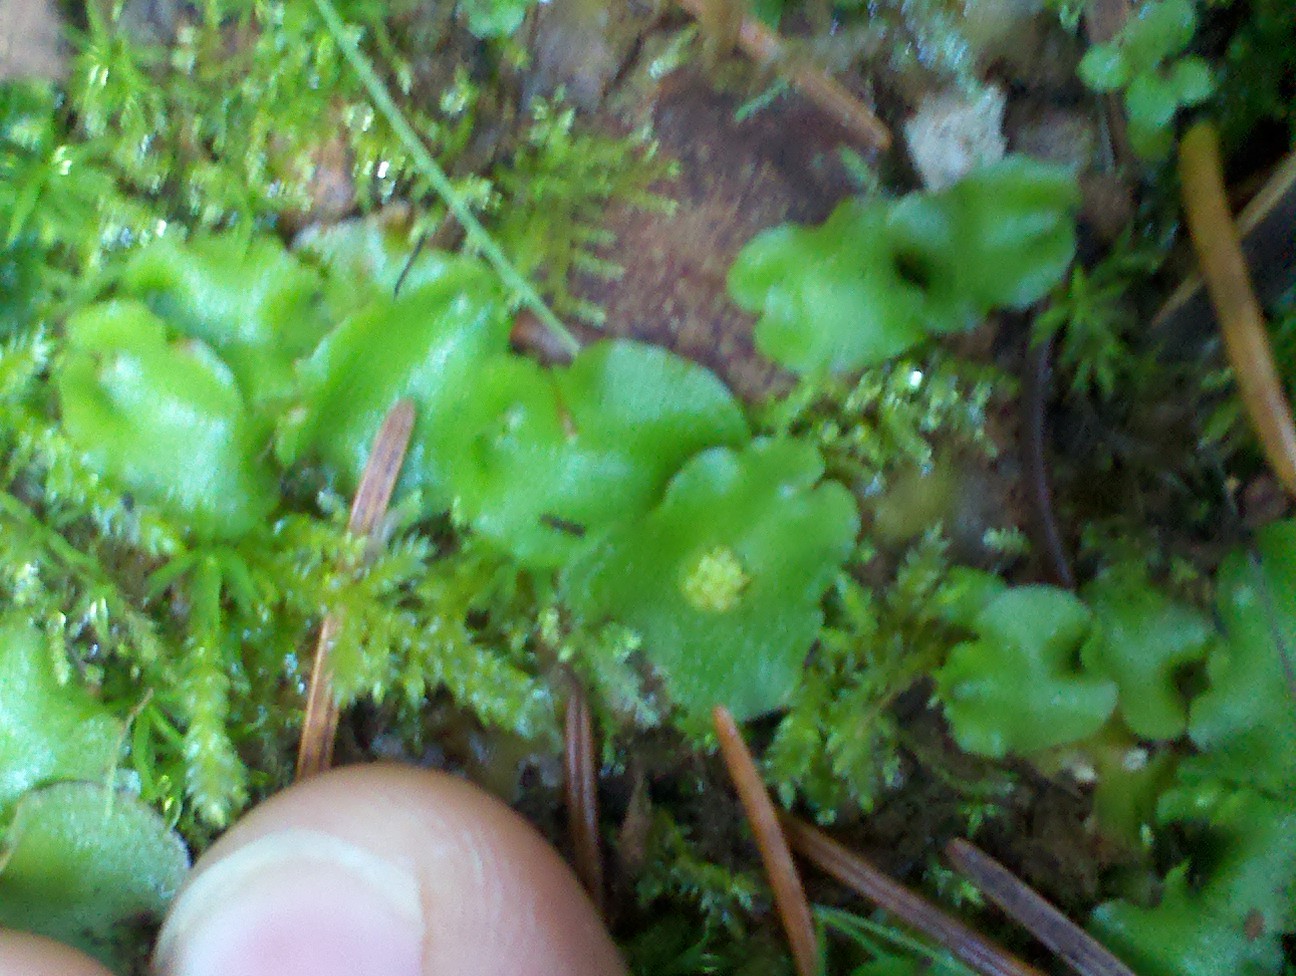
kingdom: Plantae
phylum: Marchantiophyta
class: Marchantiopsida
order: Lunulariales
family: Lunulariaceae
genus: Lunularia
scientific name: Lunularia cruciata
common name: Crescent-cup liverwort
